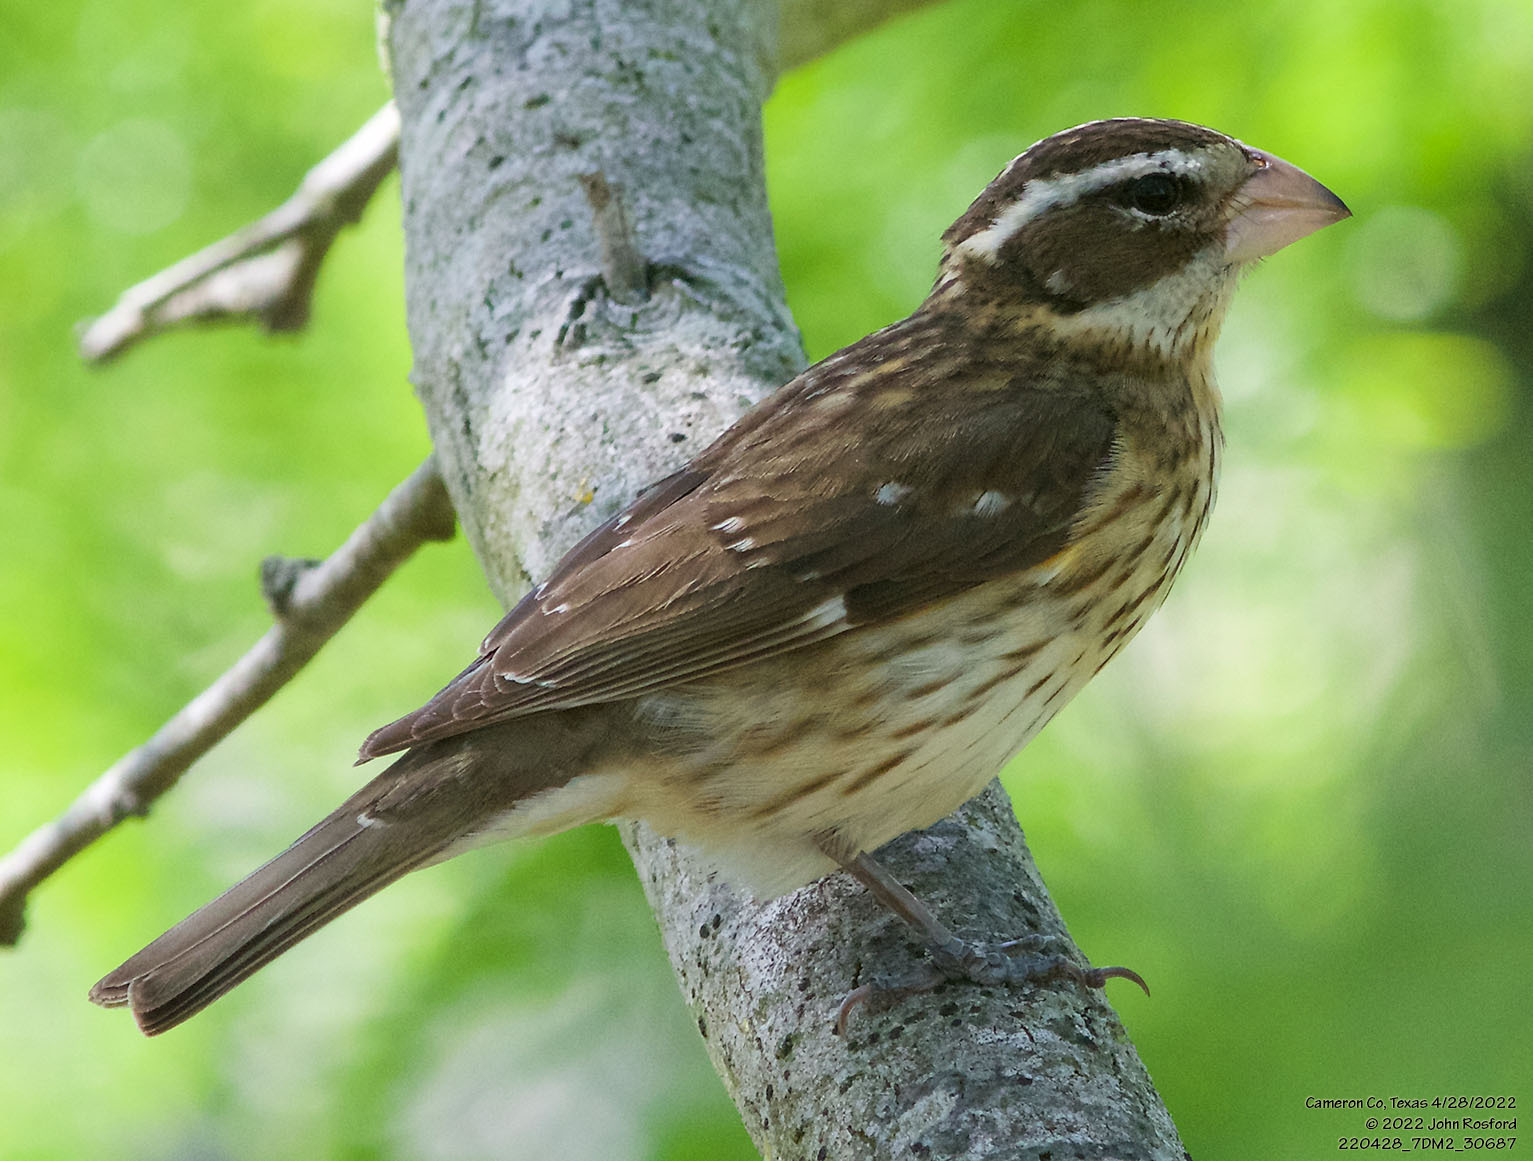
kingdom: Animalia
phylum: Chordata
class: Aves
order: Passeriformes
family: Cardinalidae
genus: Pheucticus
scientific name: Pheucticus ludovicianus
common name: Rose-breasted grosbeak
